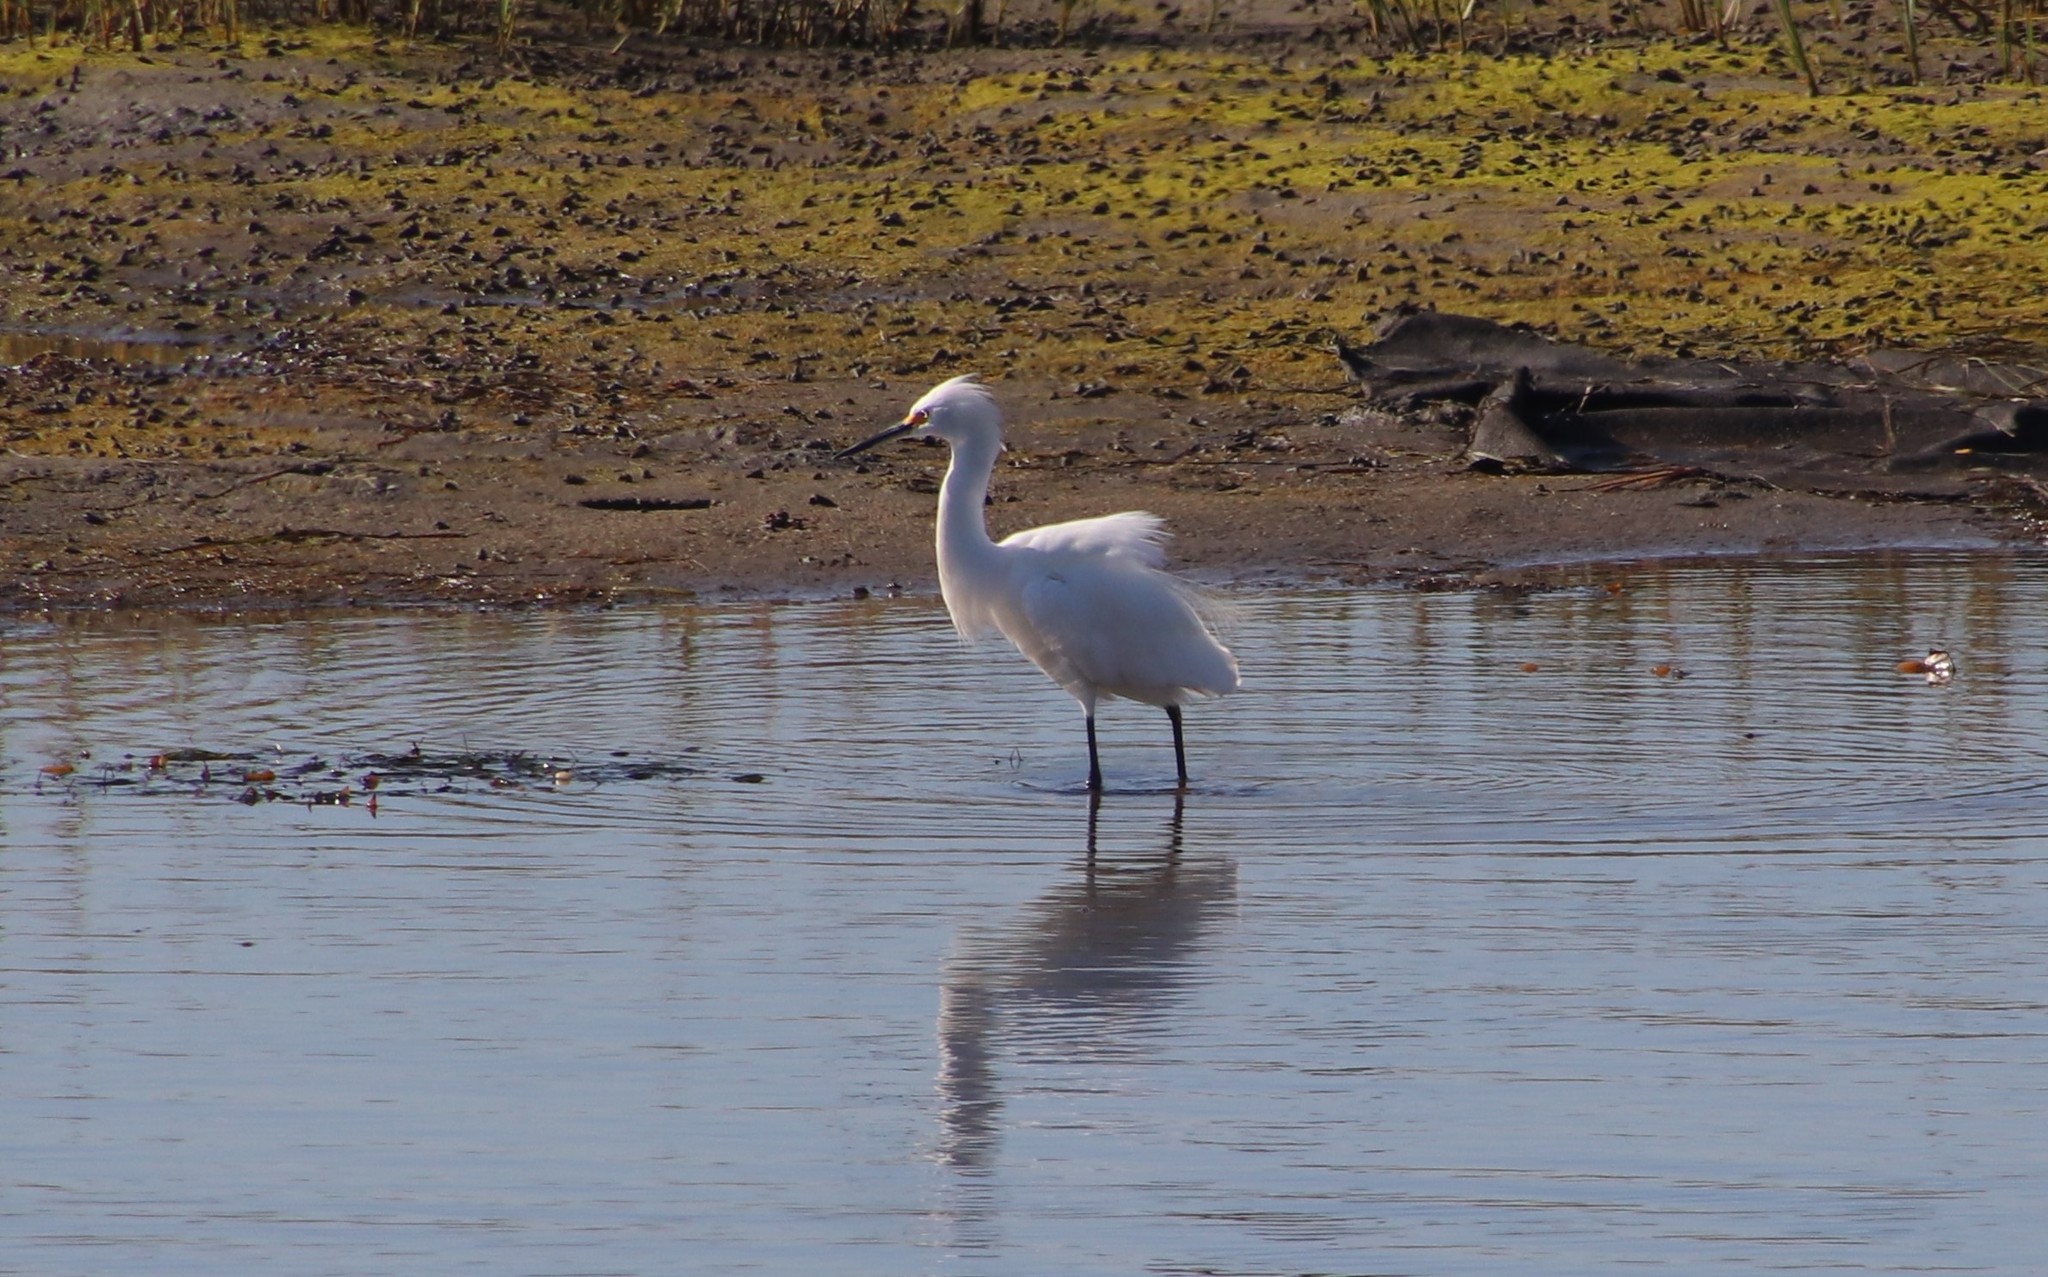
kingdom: Animalia
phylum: Chordata
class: Aves
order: Pelecaniformes
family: Ardeidae
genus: Egretta
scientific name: Egretta thula
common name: Snowy egret
